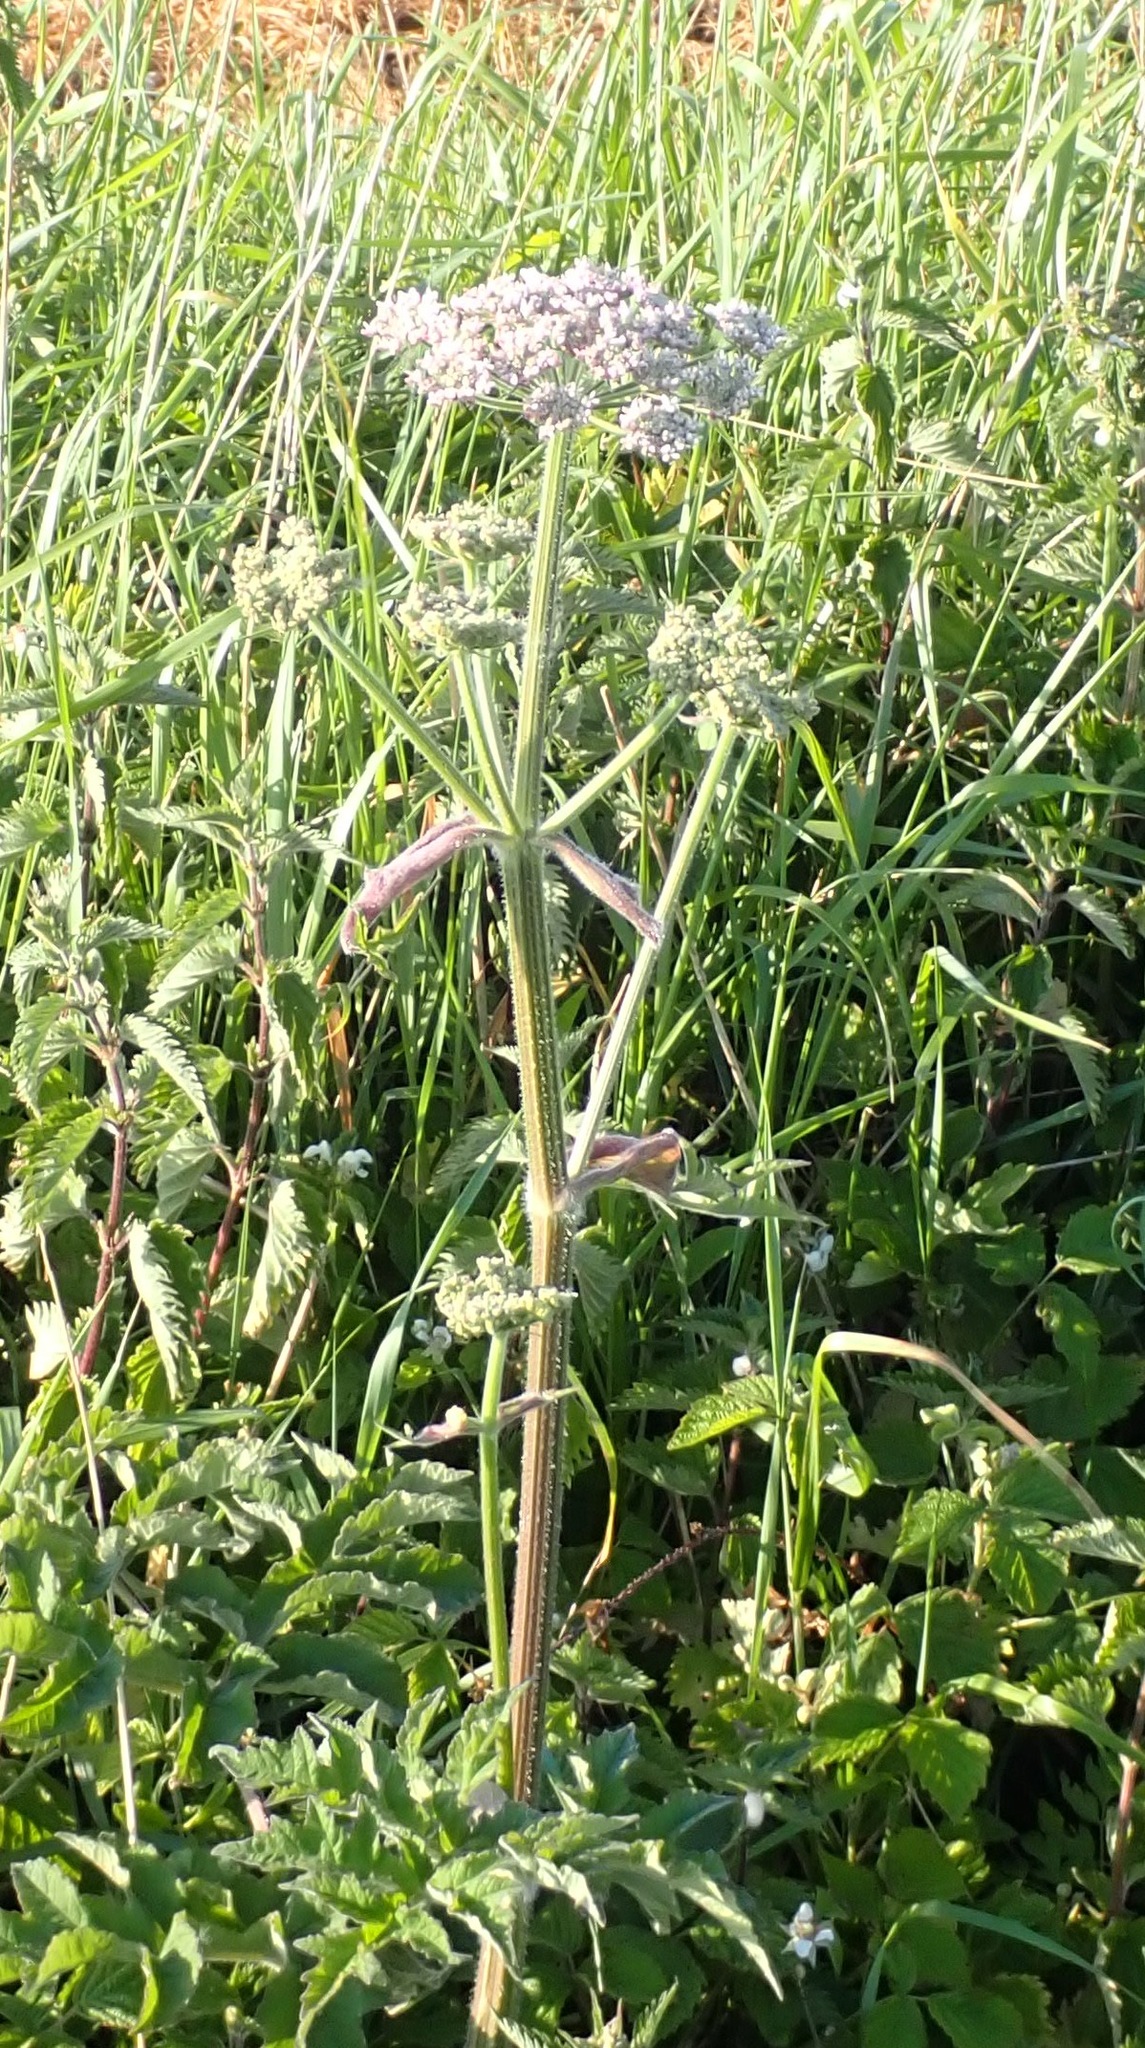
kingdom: Plantae
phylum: Tracheophyta
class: Magnoliopsida
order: Apiales
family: Apiaceae
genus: Heracleum
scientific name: Heracleum sphondylium
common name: Hogweed
